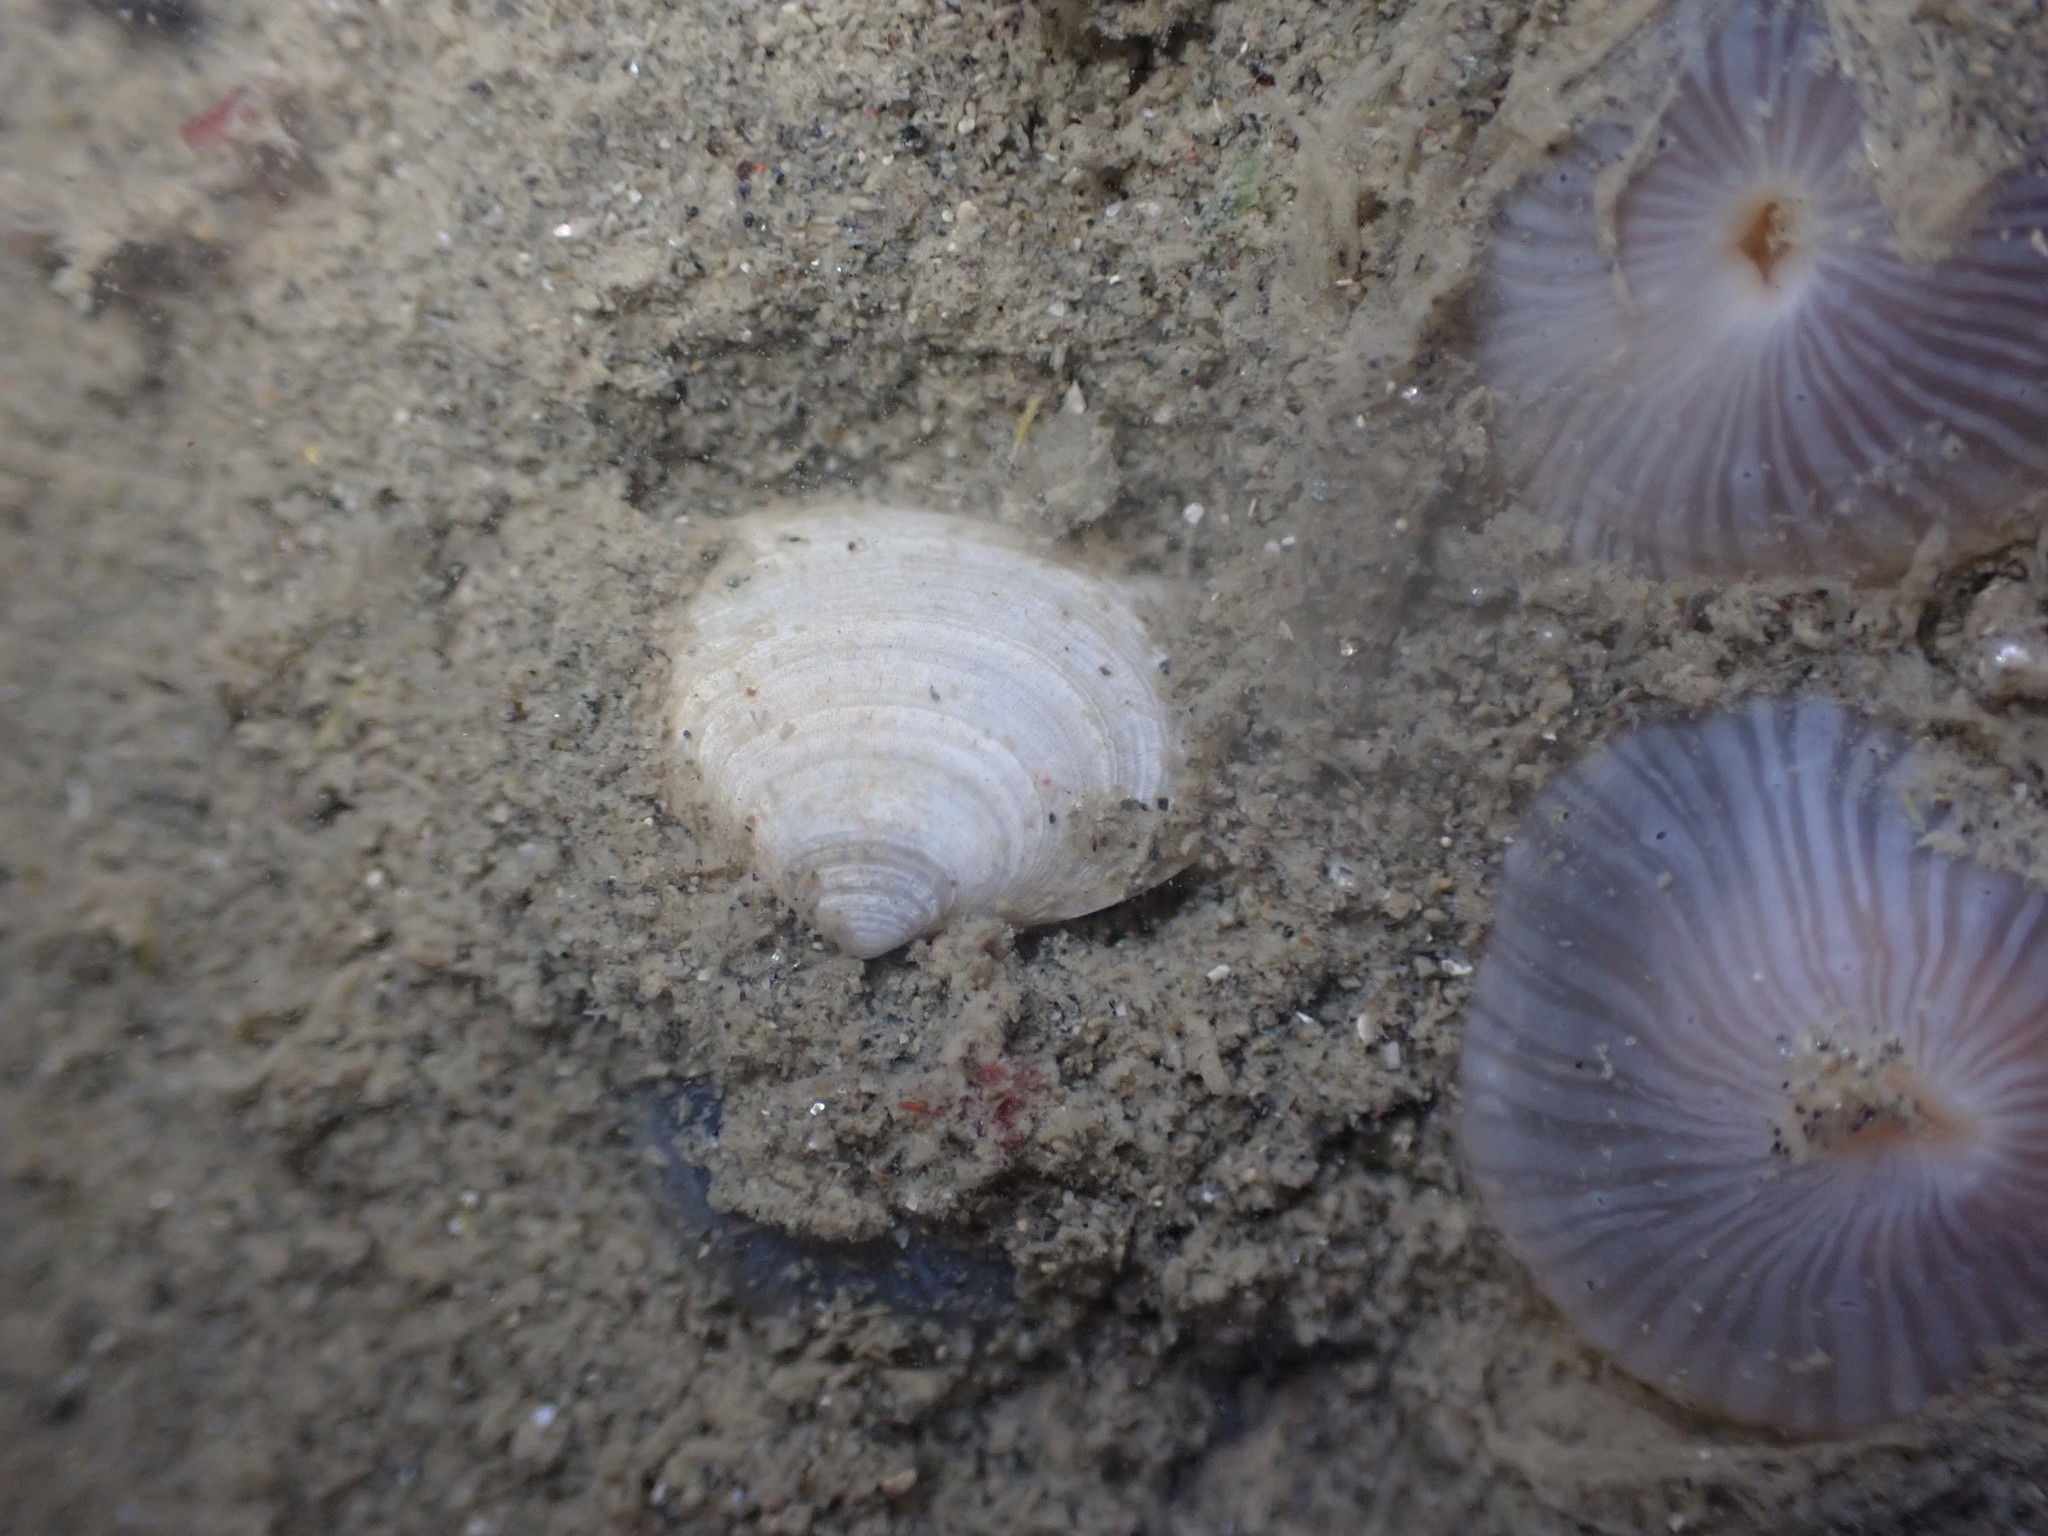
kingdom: Animalia
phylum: Mollusca
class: Bivalvia
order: Cardiida
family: Semelidae
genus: Leptomya
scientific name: Leptomya retiaria
